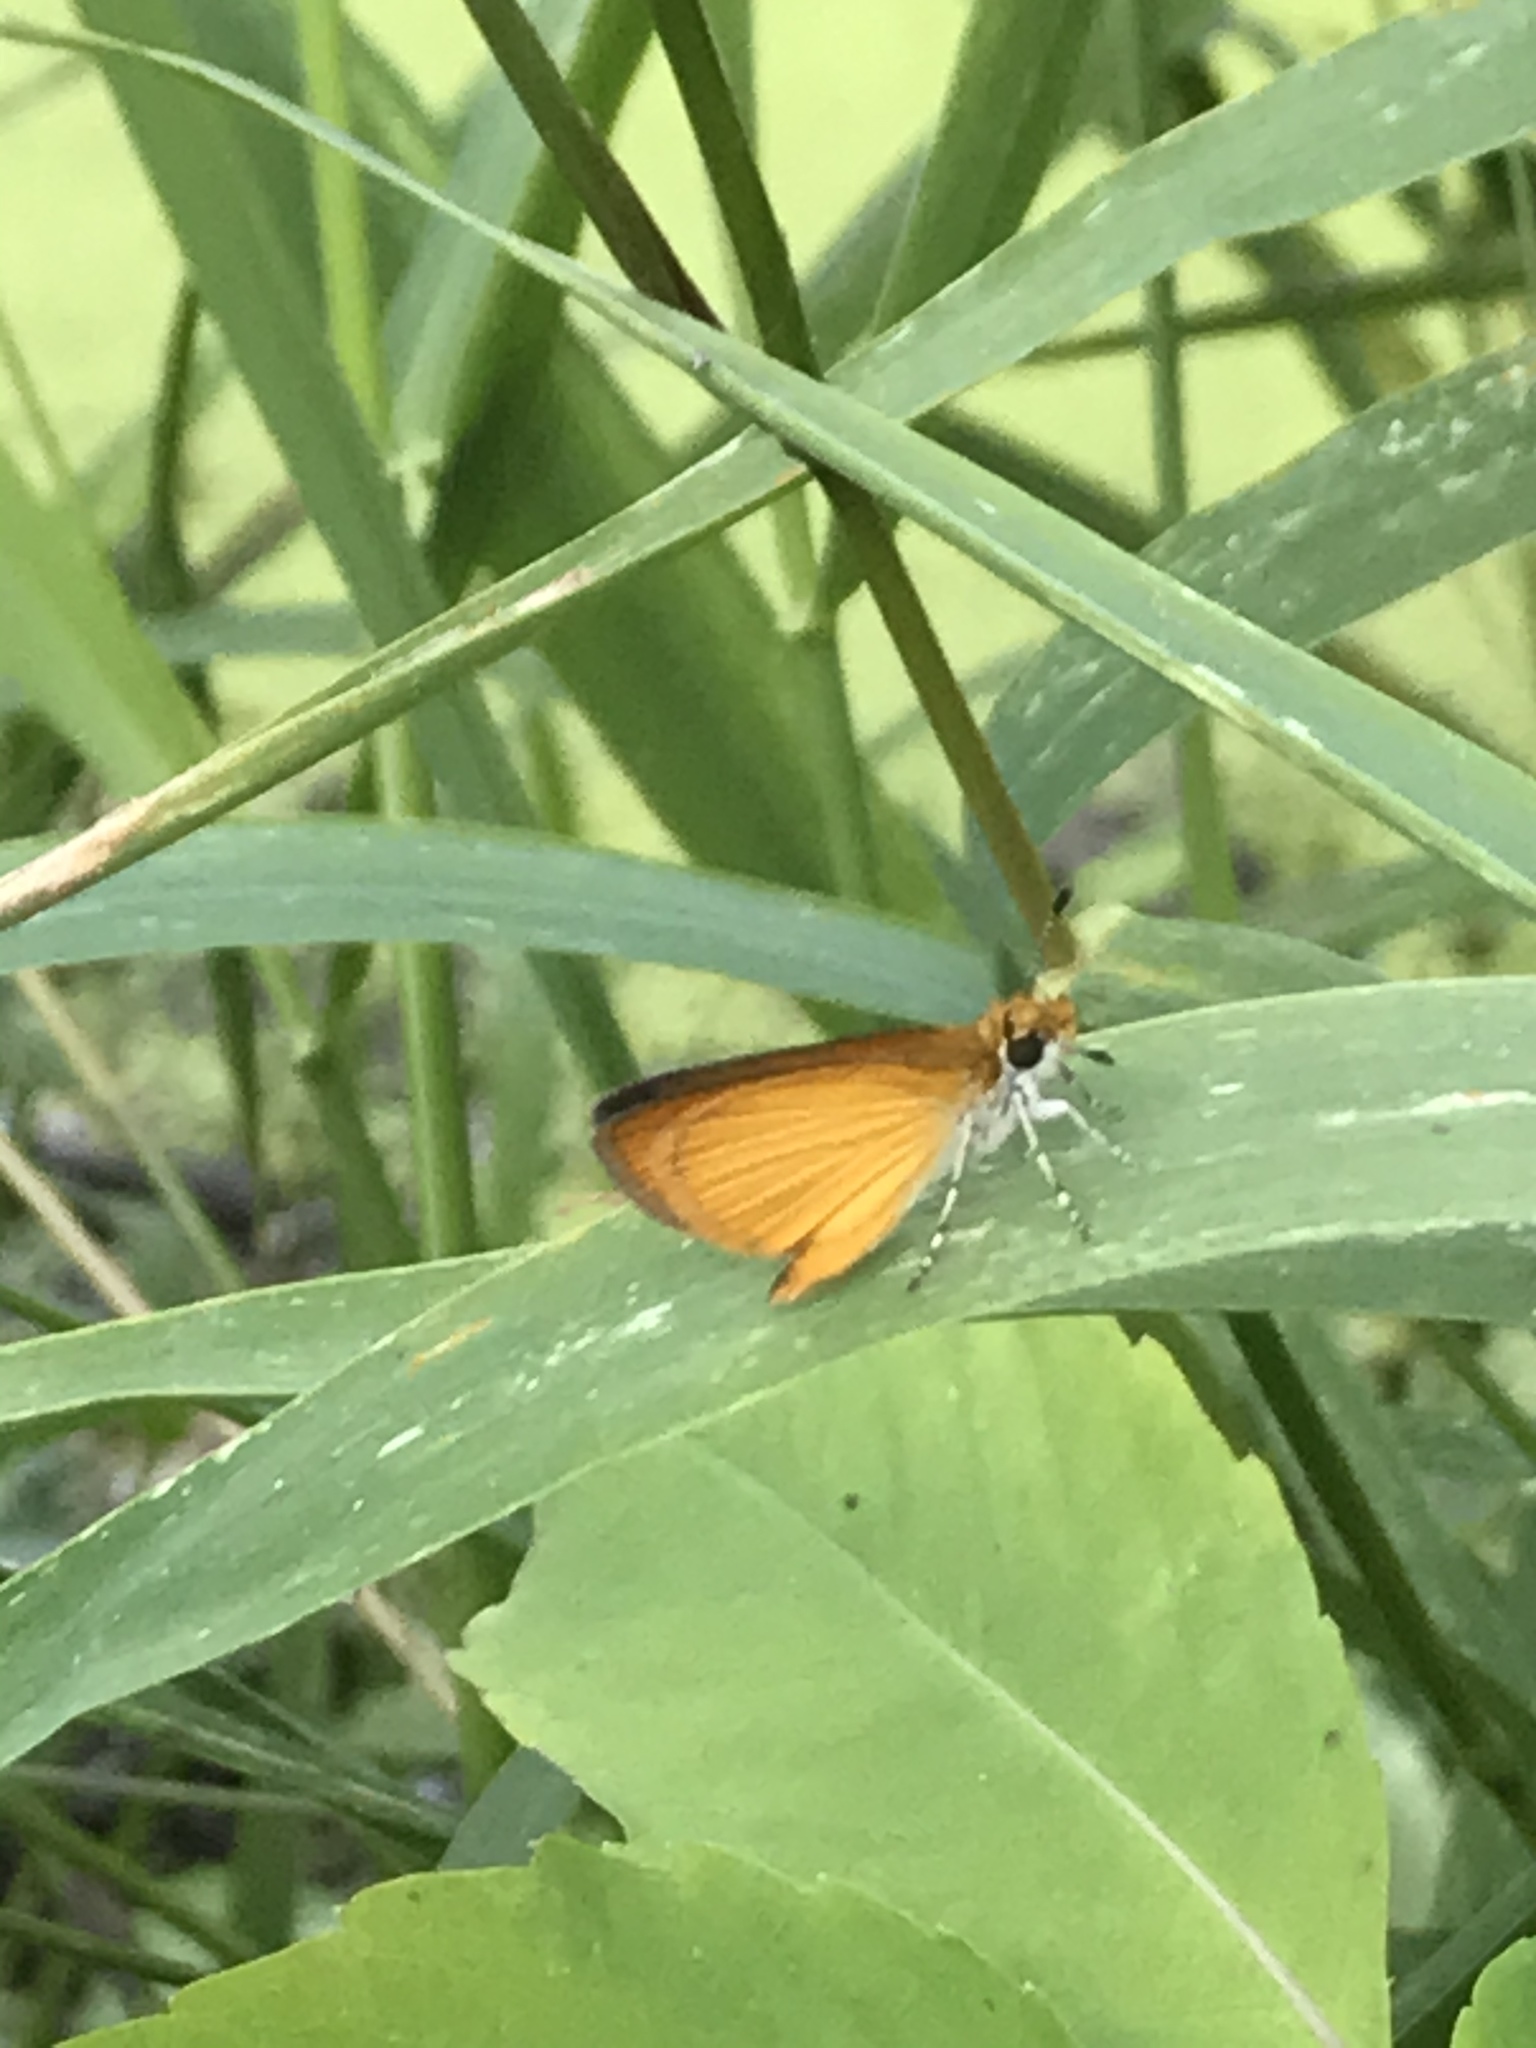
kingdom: Animalia
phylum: Arthropoda
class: Insecta
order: Lepidoptera
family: Hesperiidae
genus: Ancyloxypha
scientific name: Ancyloxypha numitor
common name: Least skipper
